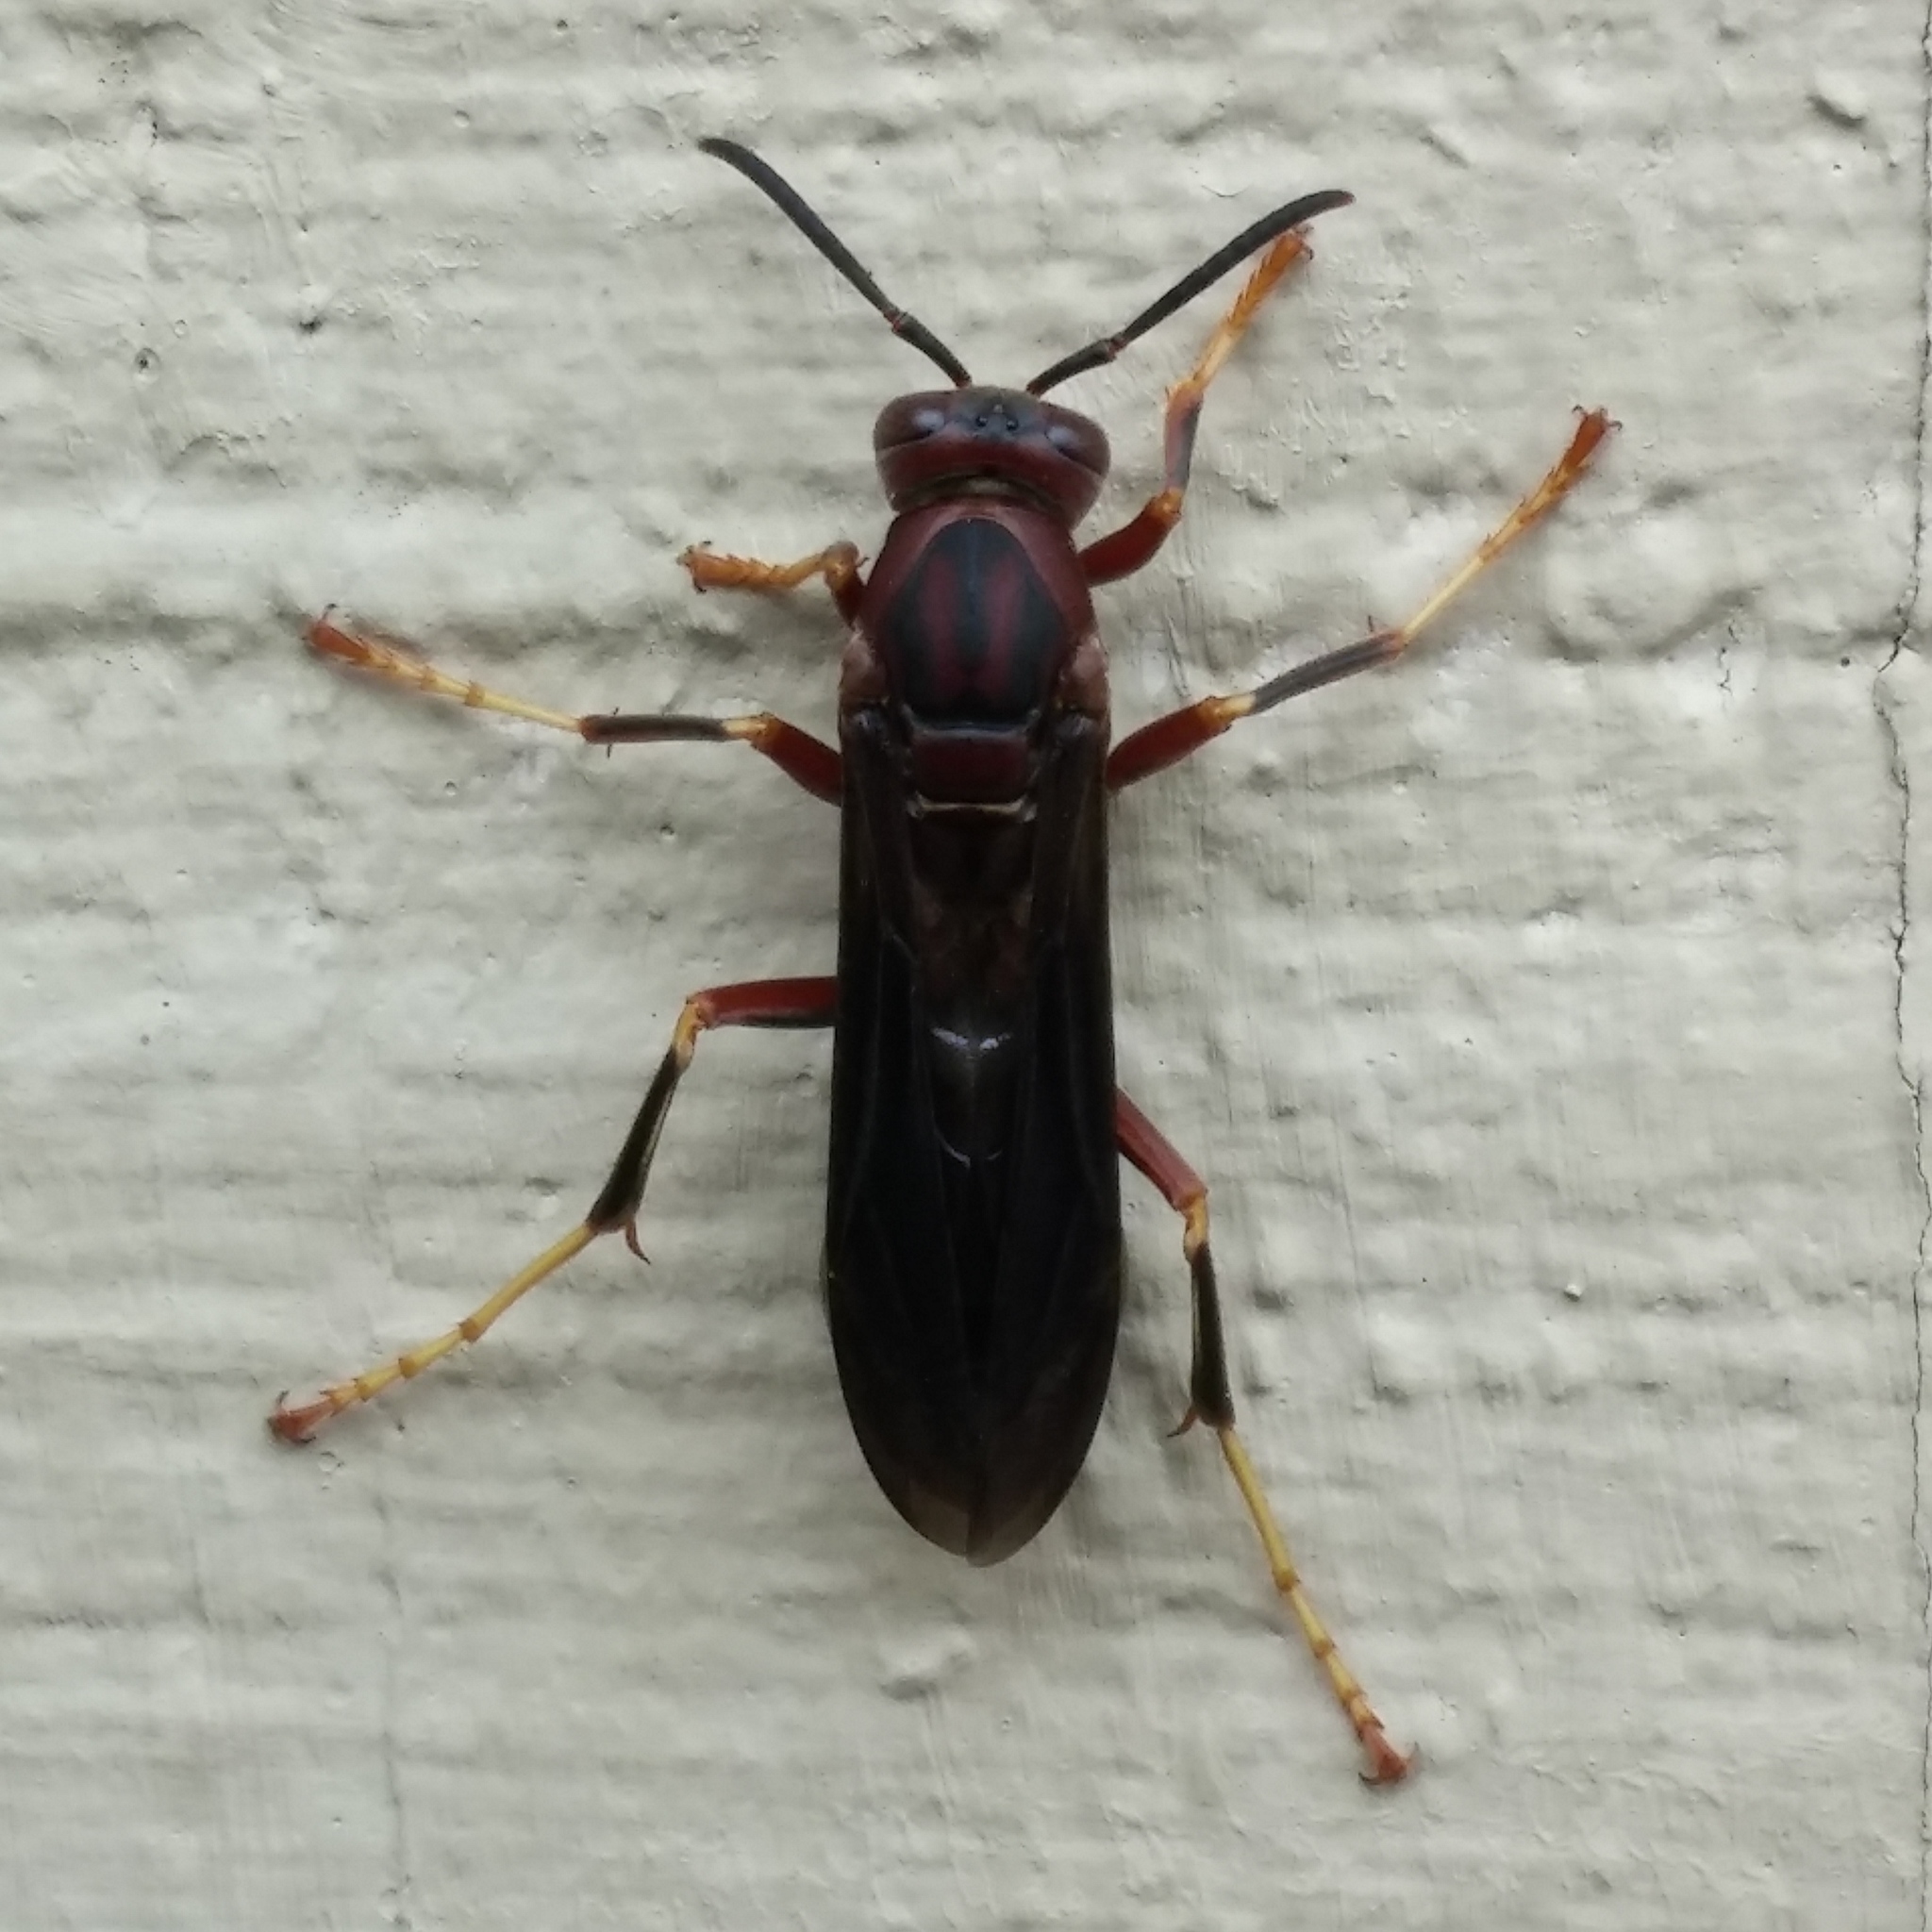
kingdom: Animalia
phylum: Arthropoda
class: Insecta
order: Hymenoptera
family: Vespidae
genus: Fuscopolistes
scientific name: Fuscopolistes
